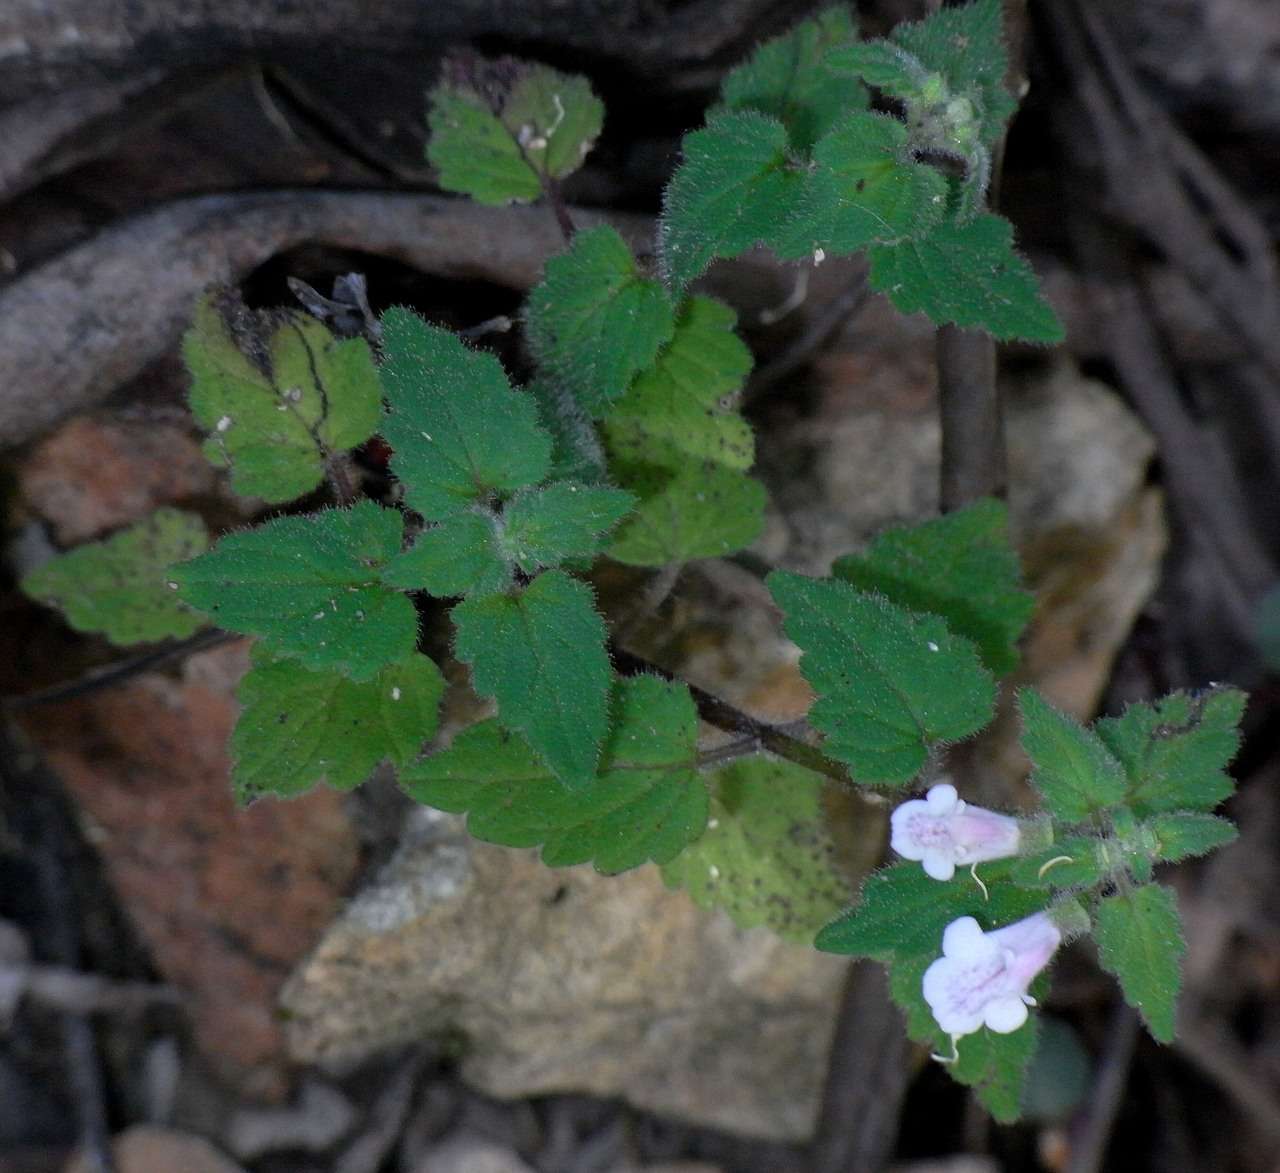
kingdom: Plantae
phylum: Tracheophyta
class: Magnoliopsida
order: Lamiales
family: Lamiaceae
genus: Scutellaria
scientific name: Scutellaria mollis
